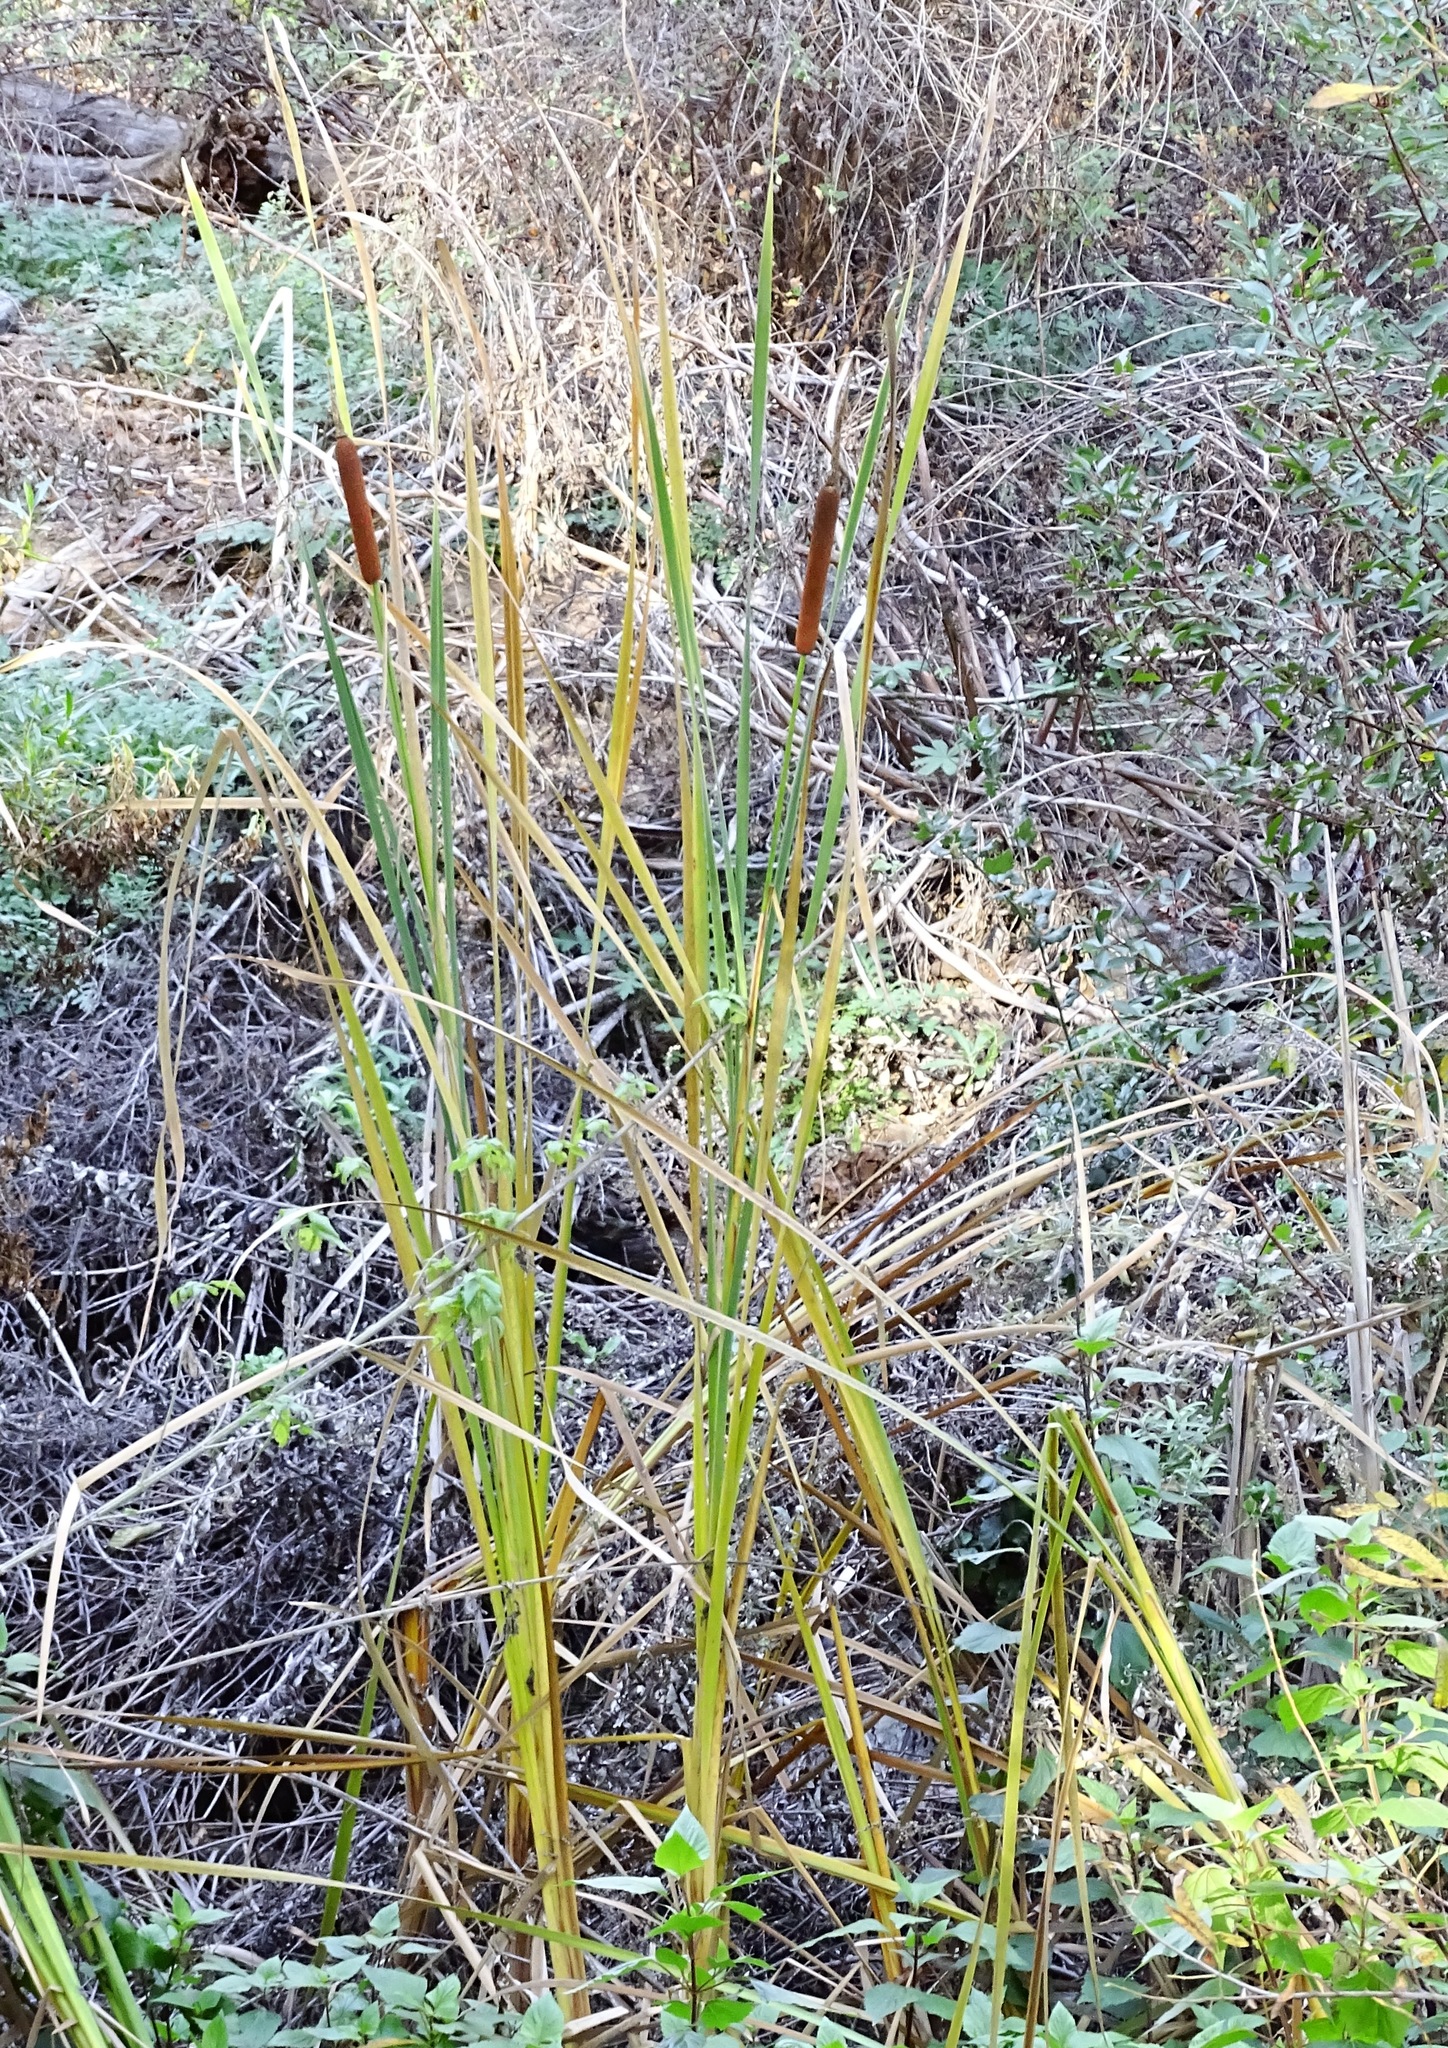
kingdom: Plantae
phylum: Tracheophyta
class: Liliopsida
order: Poales
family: Typhaceae
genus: Typha
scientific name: Typha latifolia
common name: Broadleaf cattail
